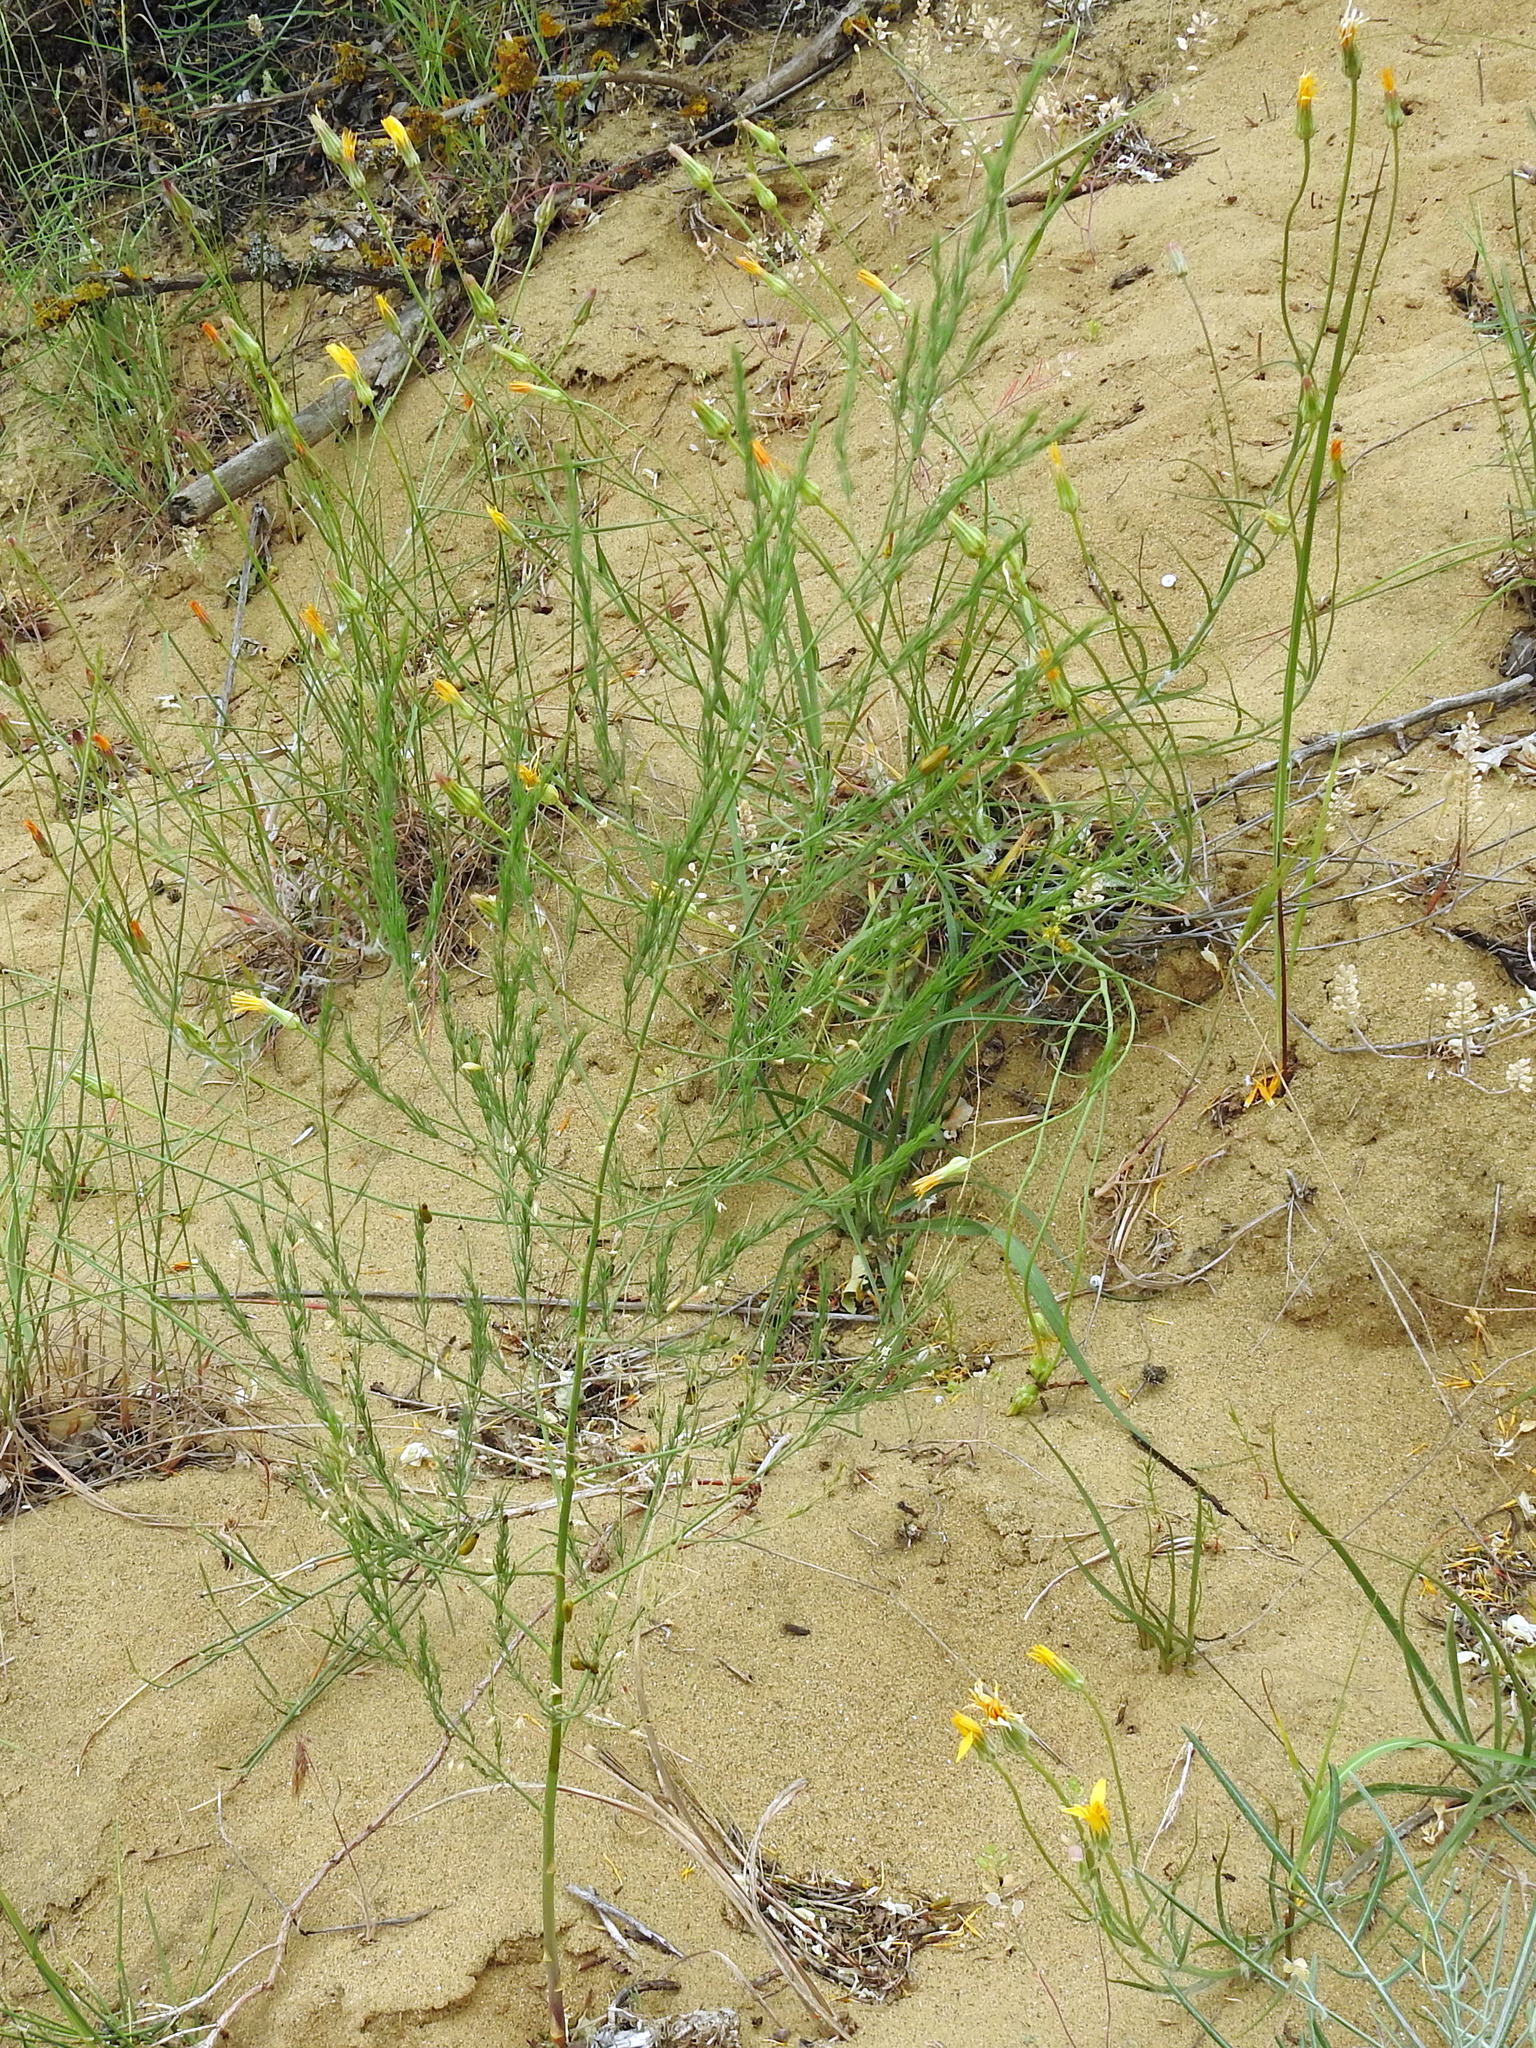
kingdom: Plantae
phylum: Tracheophyta
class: Liliopsida
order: Asparagales
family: Asparagaceae
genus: Asparagus
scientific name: Asparagus officinalis
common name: Garden asparagus
